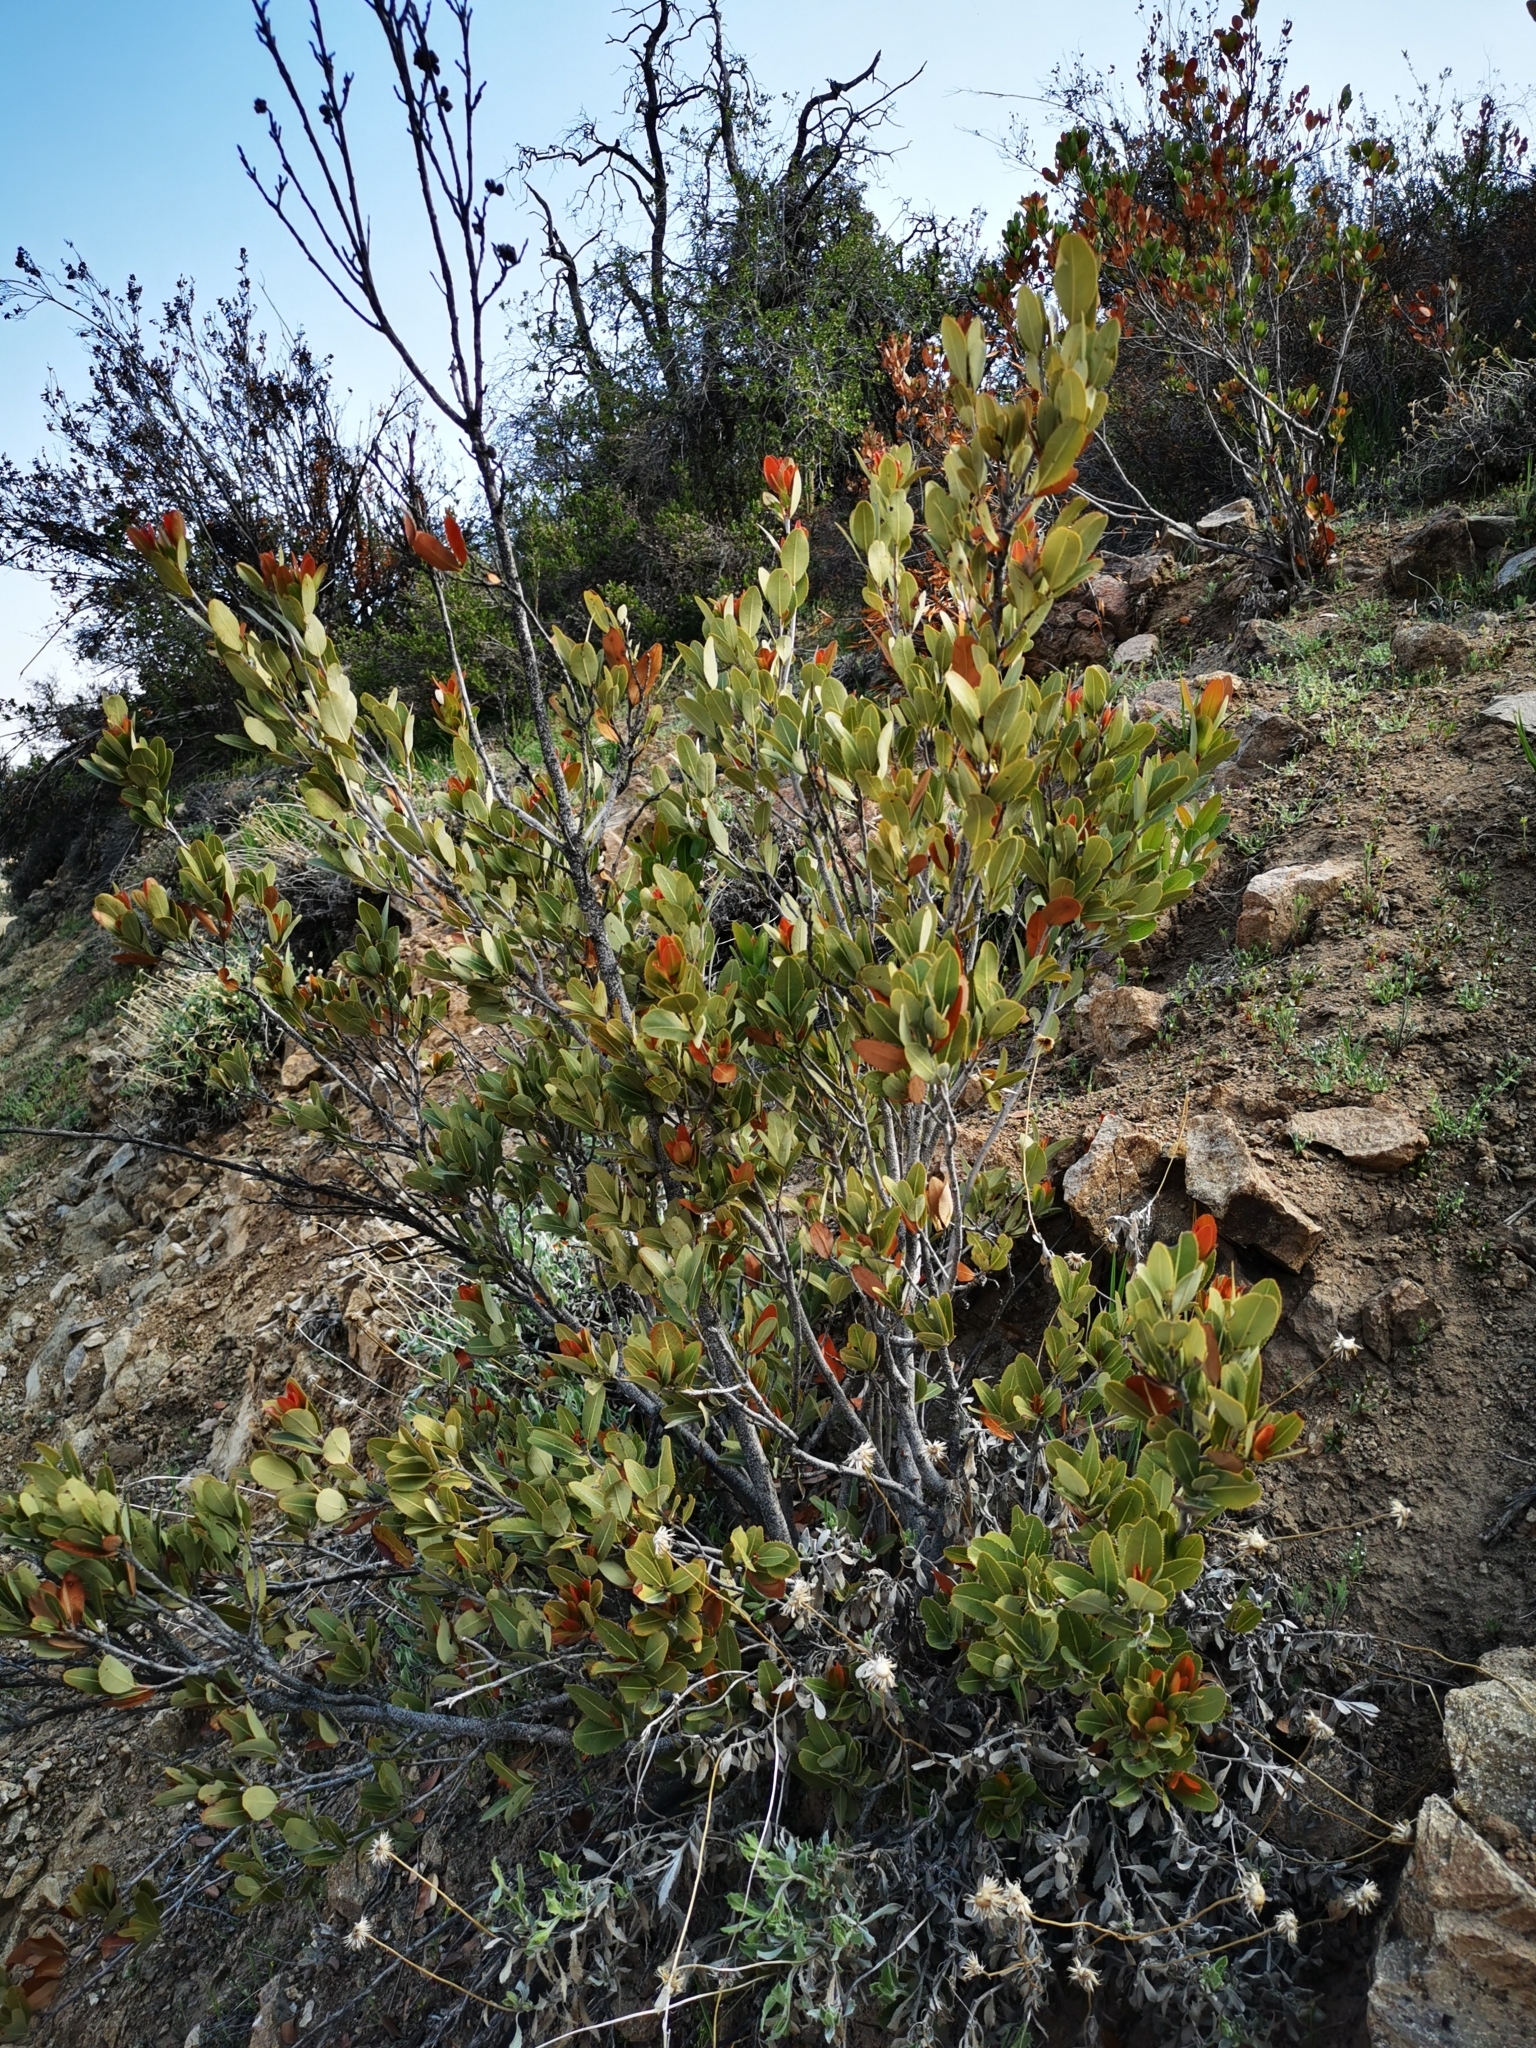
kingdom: Plantae
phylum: Tracheophyta
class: Magnoliopsida
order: Rosales
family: Rosaceae
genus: Kageneckia
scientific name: Kageneckia oblonga
